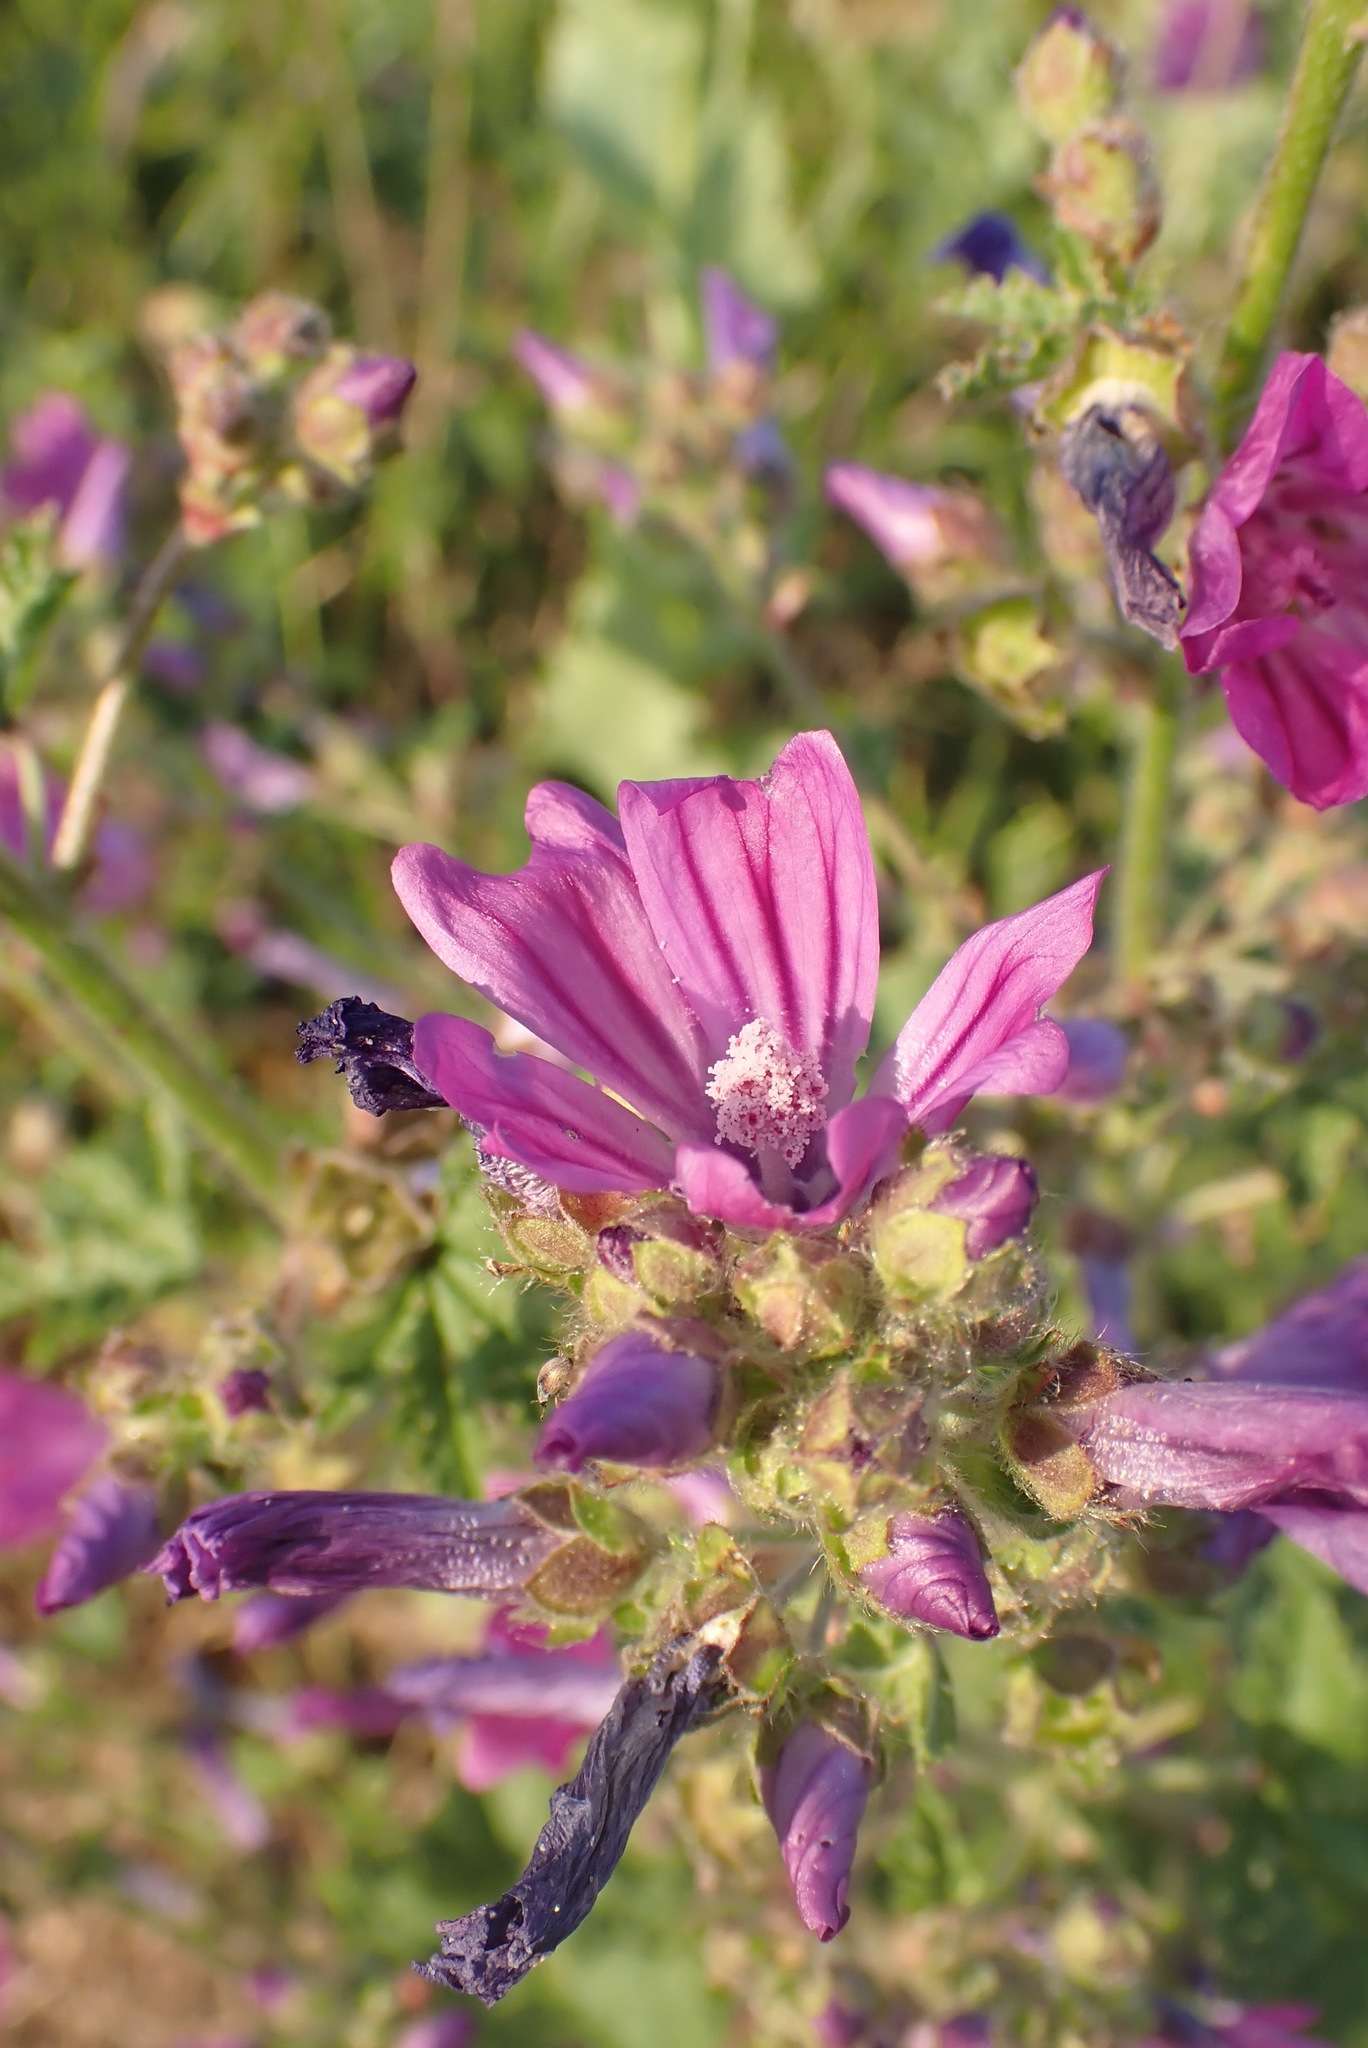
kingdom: Plantae
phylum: Tracheophyta
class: Magnoliopsida
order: Malvales
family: Malvaceae
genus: Malva
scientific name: Malva sylvestris
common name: Common mallow
